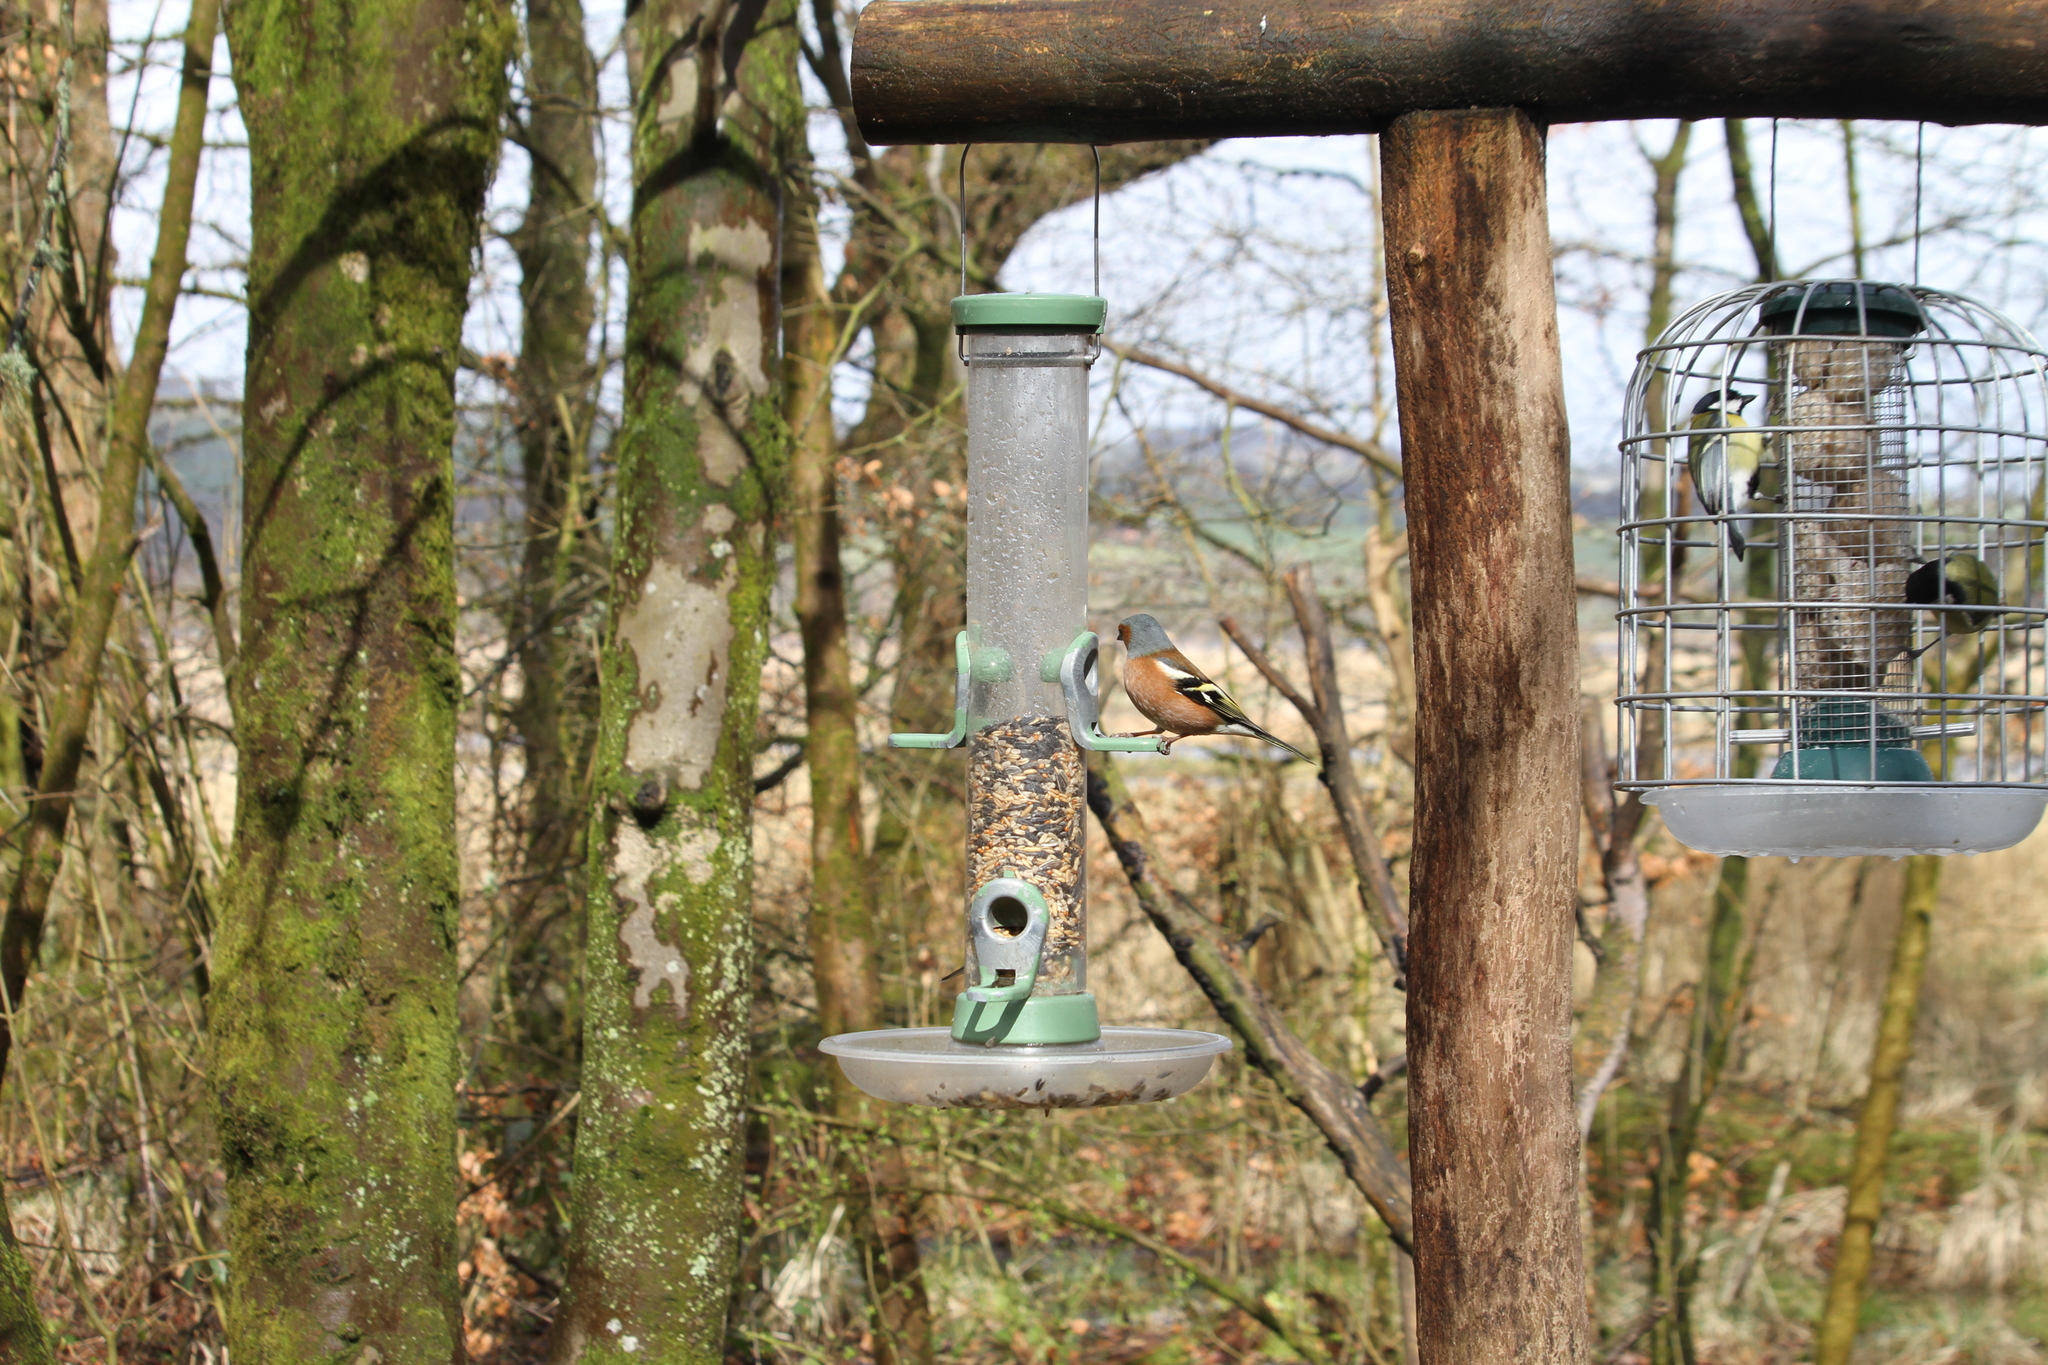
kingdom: Animalia
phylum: Chordata
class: Aves
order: Passeriformes
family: Fringillidae
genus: Fringilla
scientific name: Fringilla coelebs
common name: Common chaffinch
